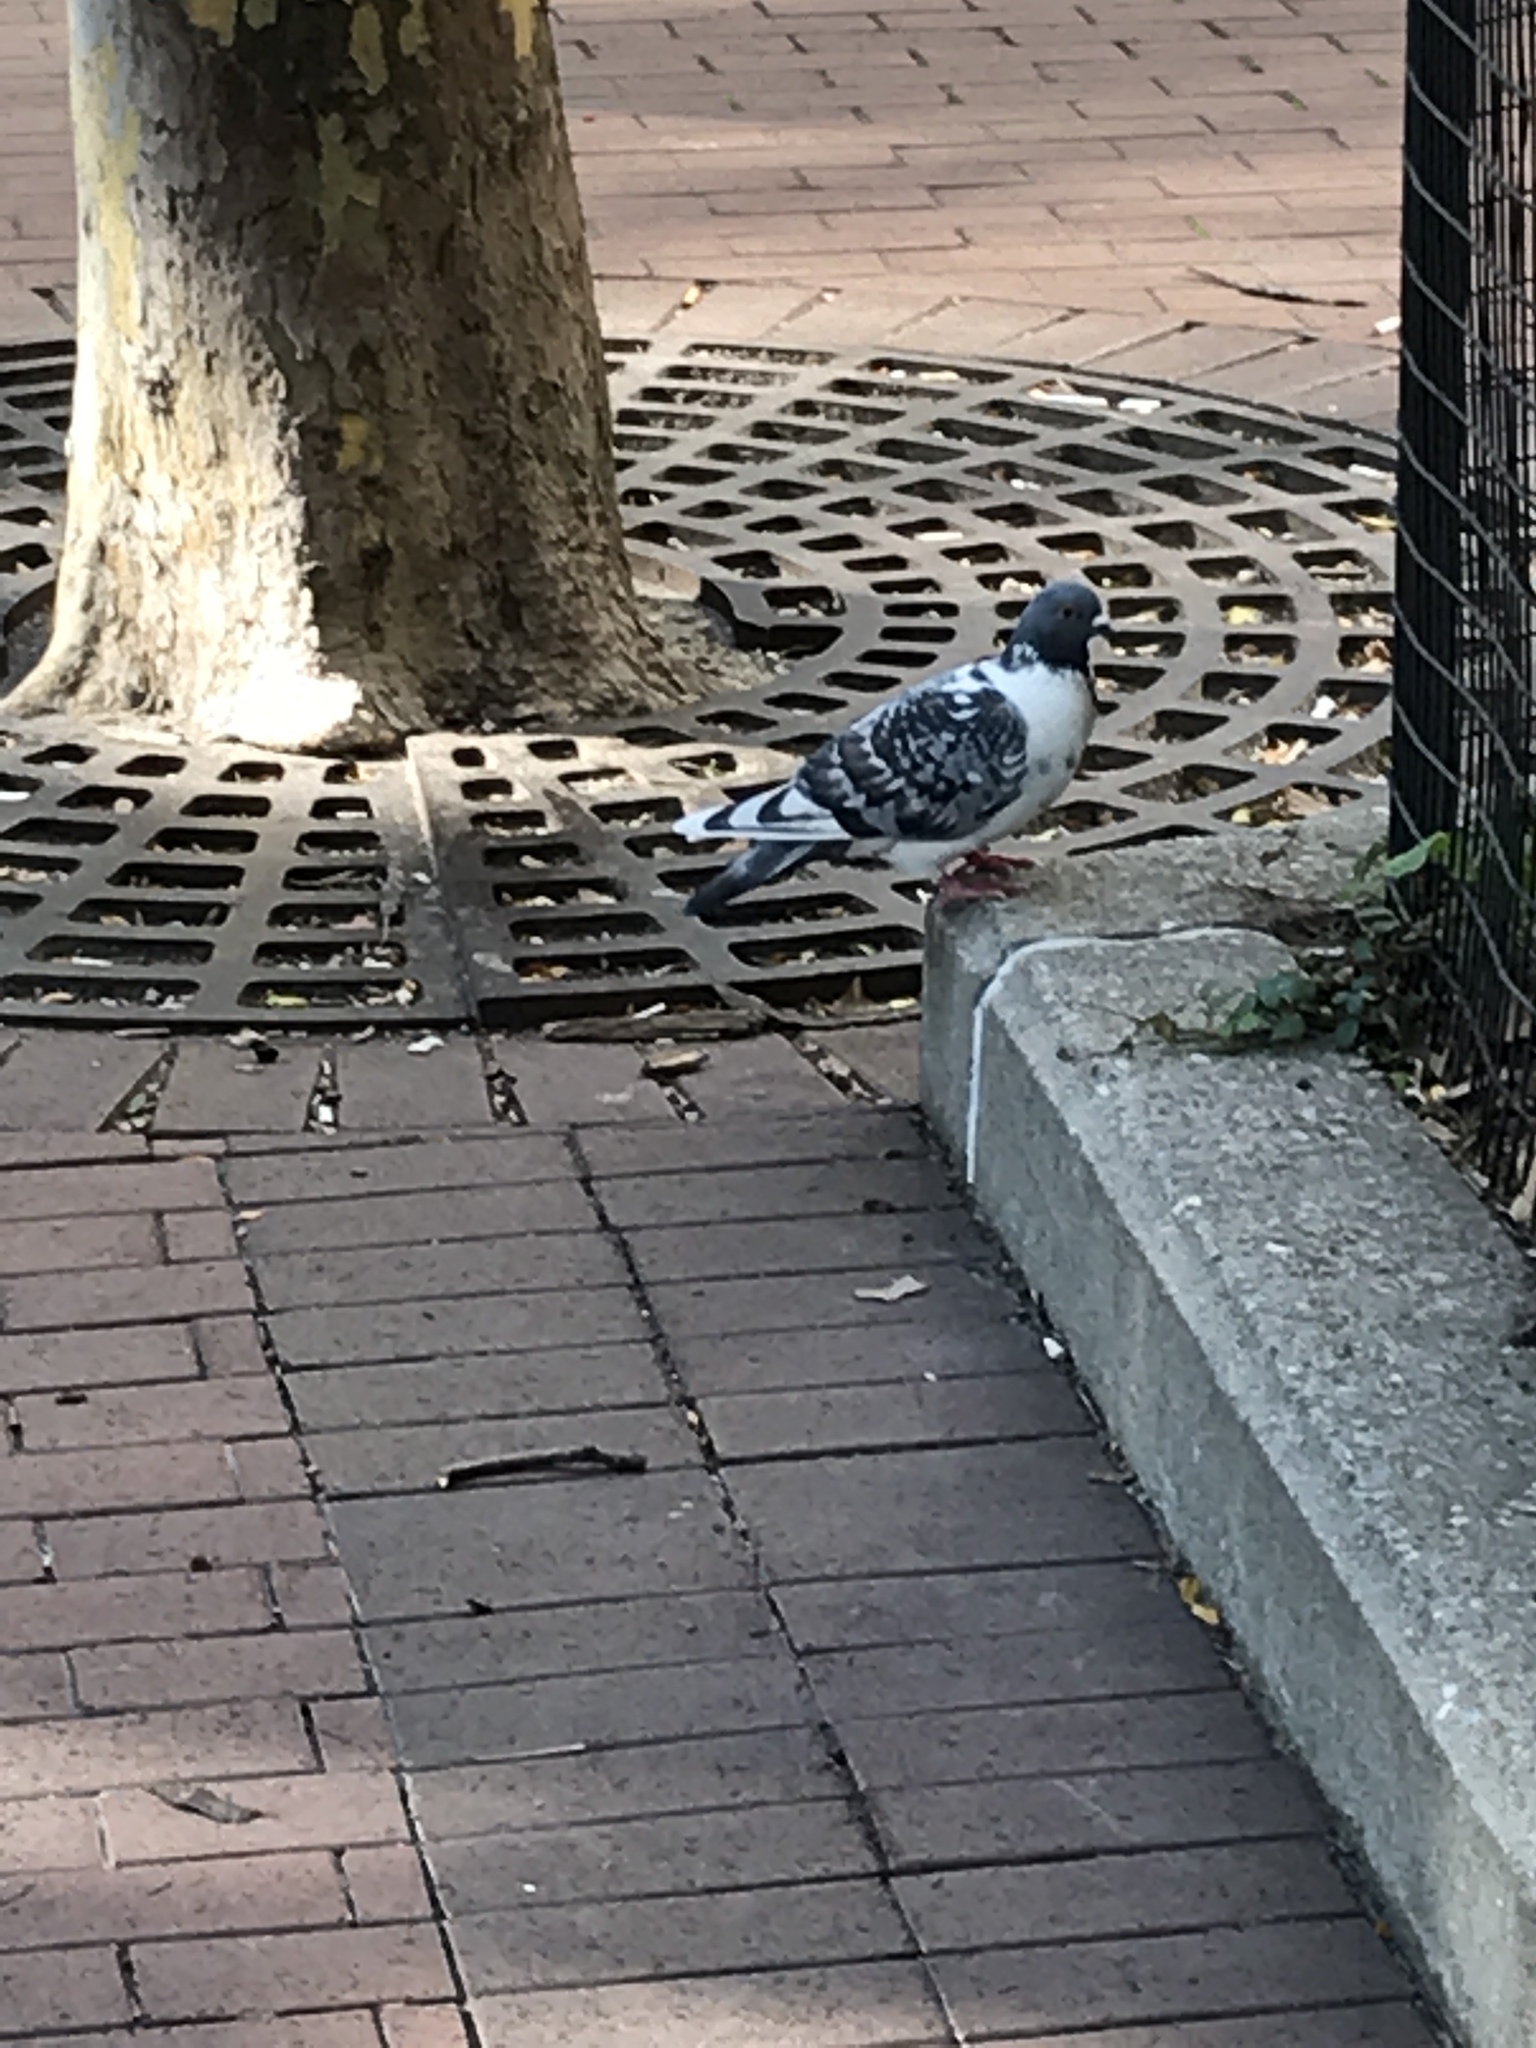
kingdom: Animalia
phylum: Chordata
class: Aves
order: Columbiformes
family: Columbidae
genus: Columba
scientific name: Columba livia
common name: Rock pigeon
